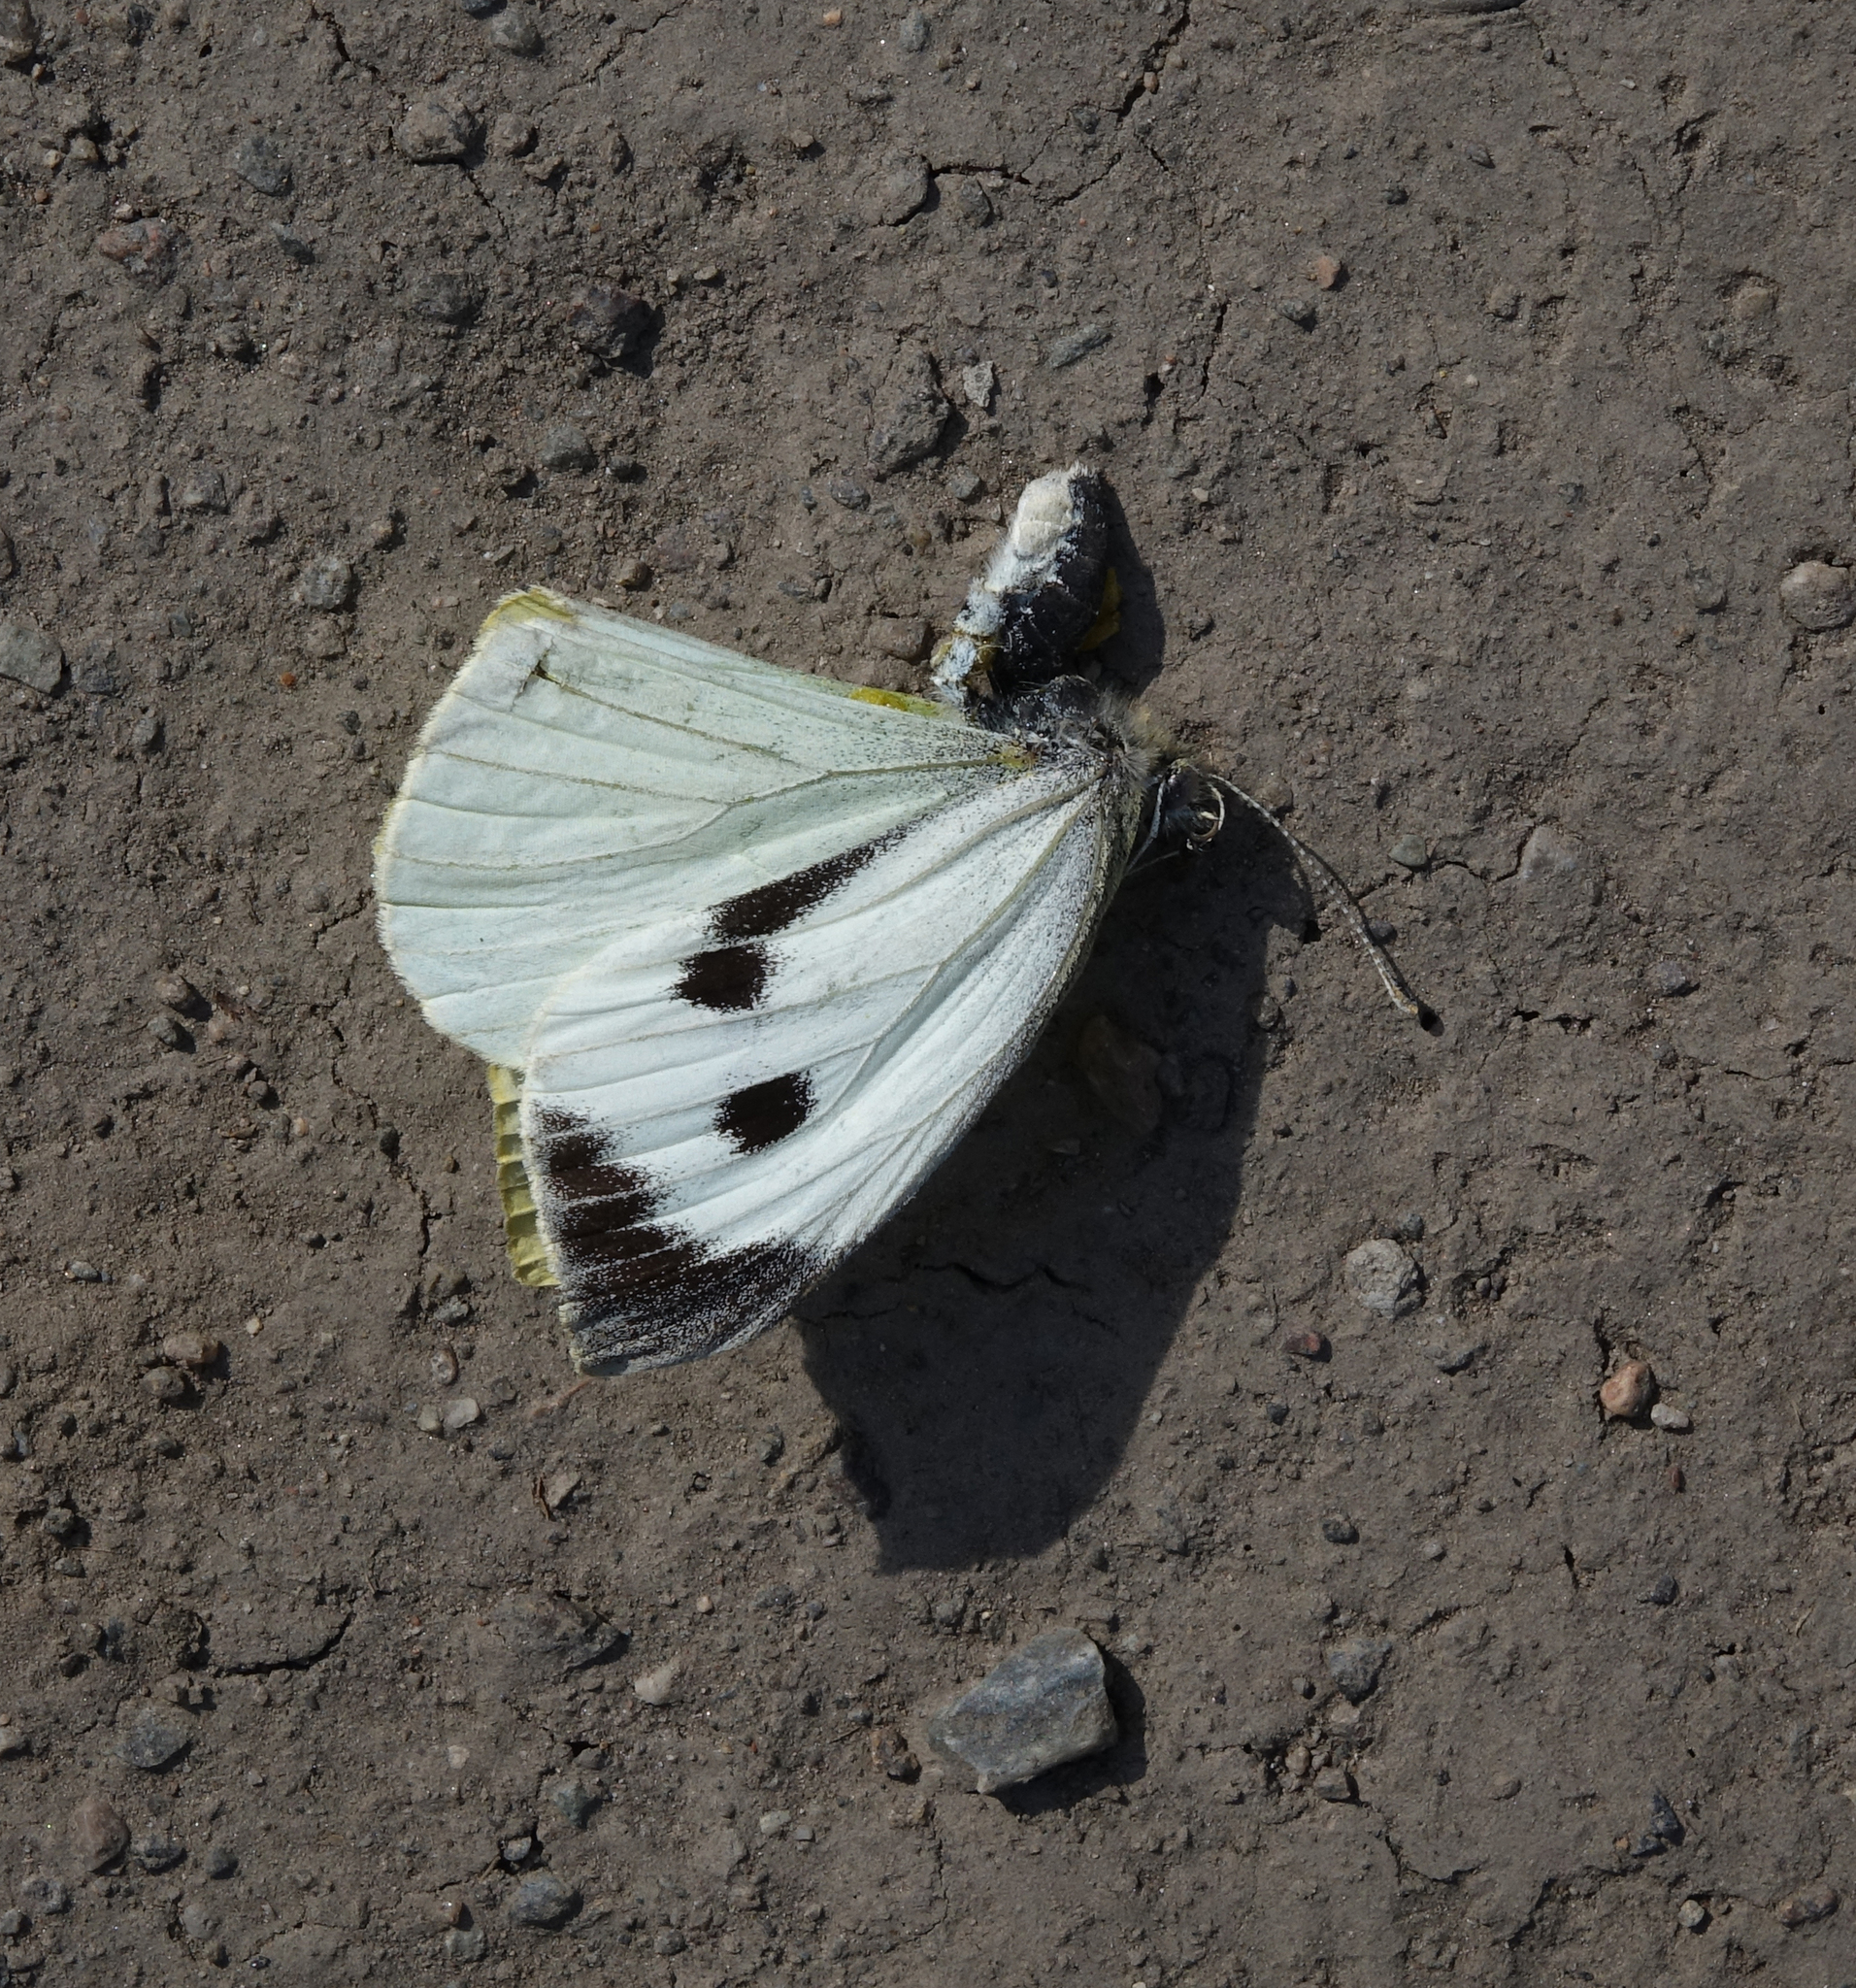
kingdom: Animalia
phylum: Arthropoda
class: Insecta
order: Lepidoptera
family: Pieridae
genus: Pieris
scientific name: Pieris brassicae
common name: Large white
